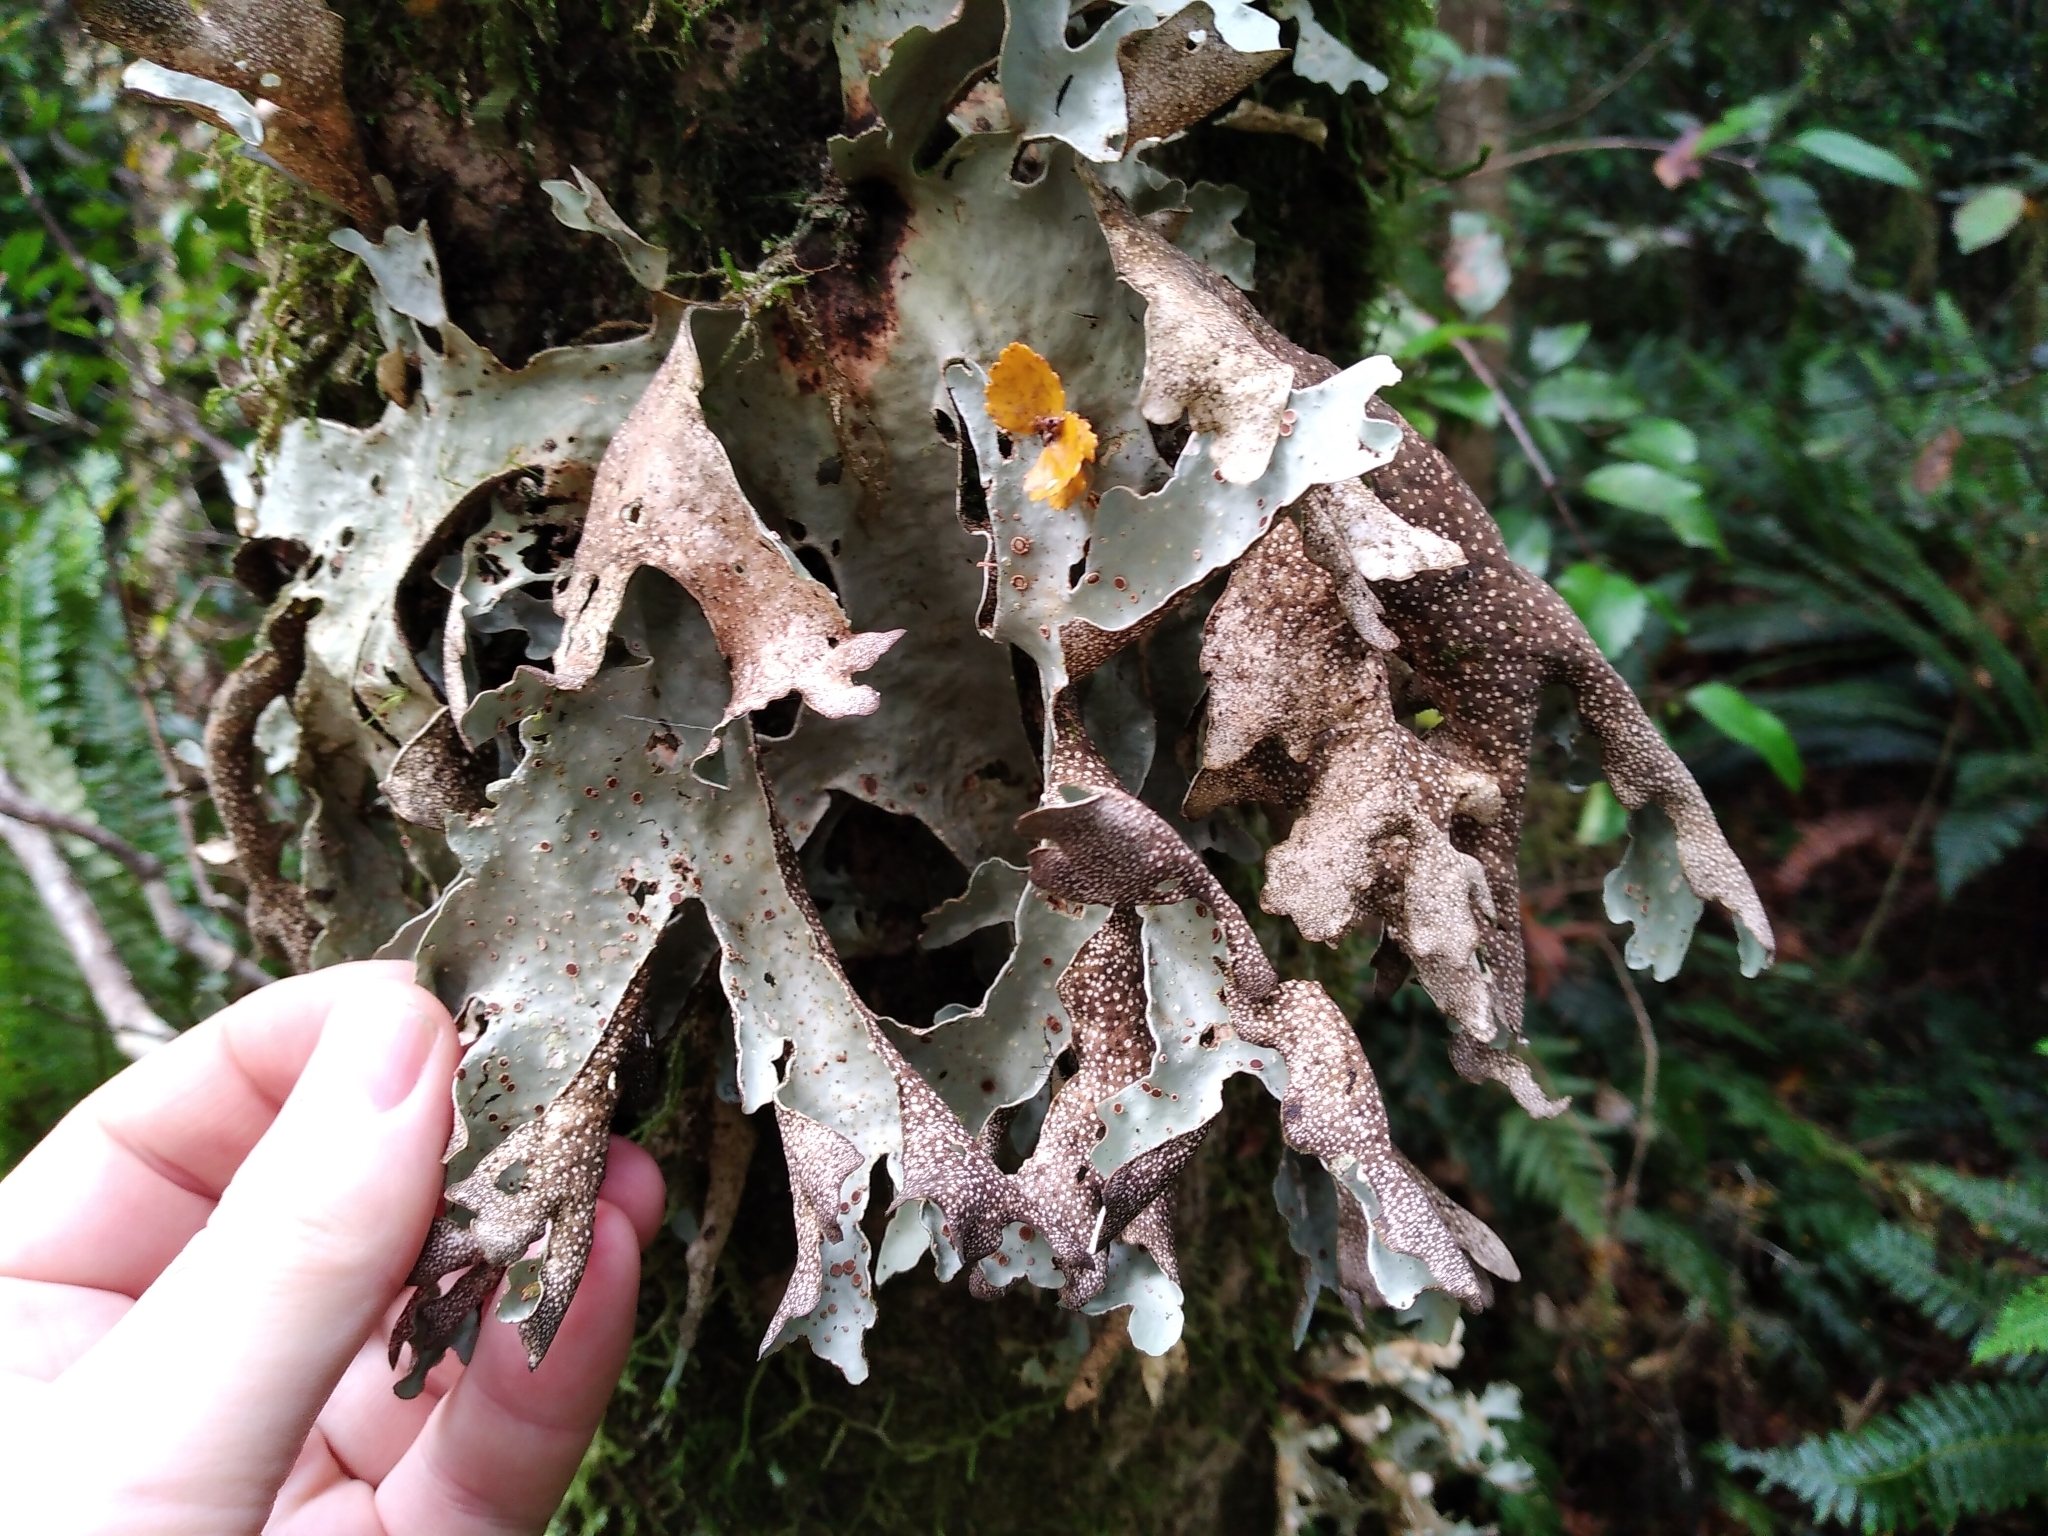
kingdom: Fungi
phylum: Ascomycota
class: Lecanoromycetes
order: Peltigerales
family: Lobariaceae
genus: Sticta
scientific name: Sticta
